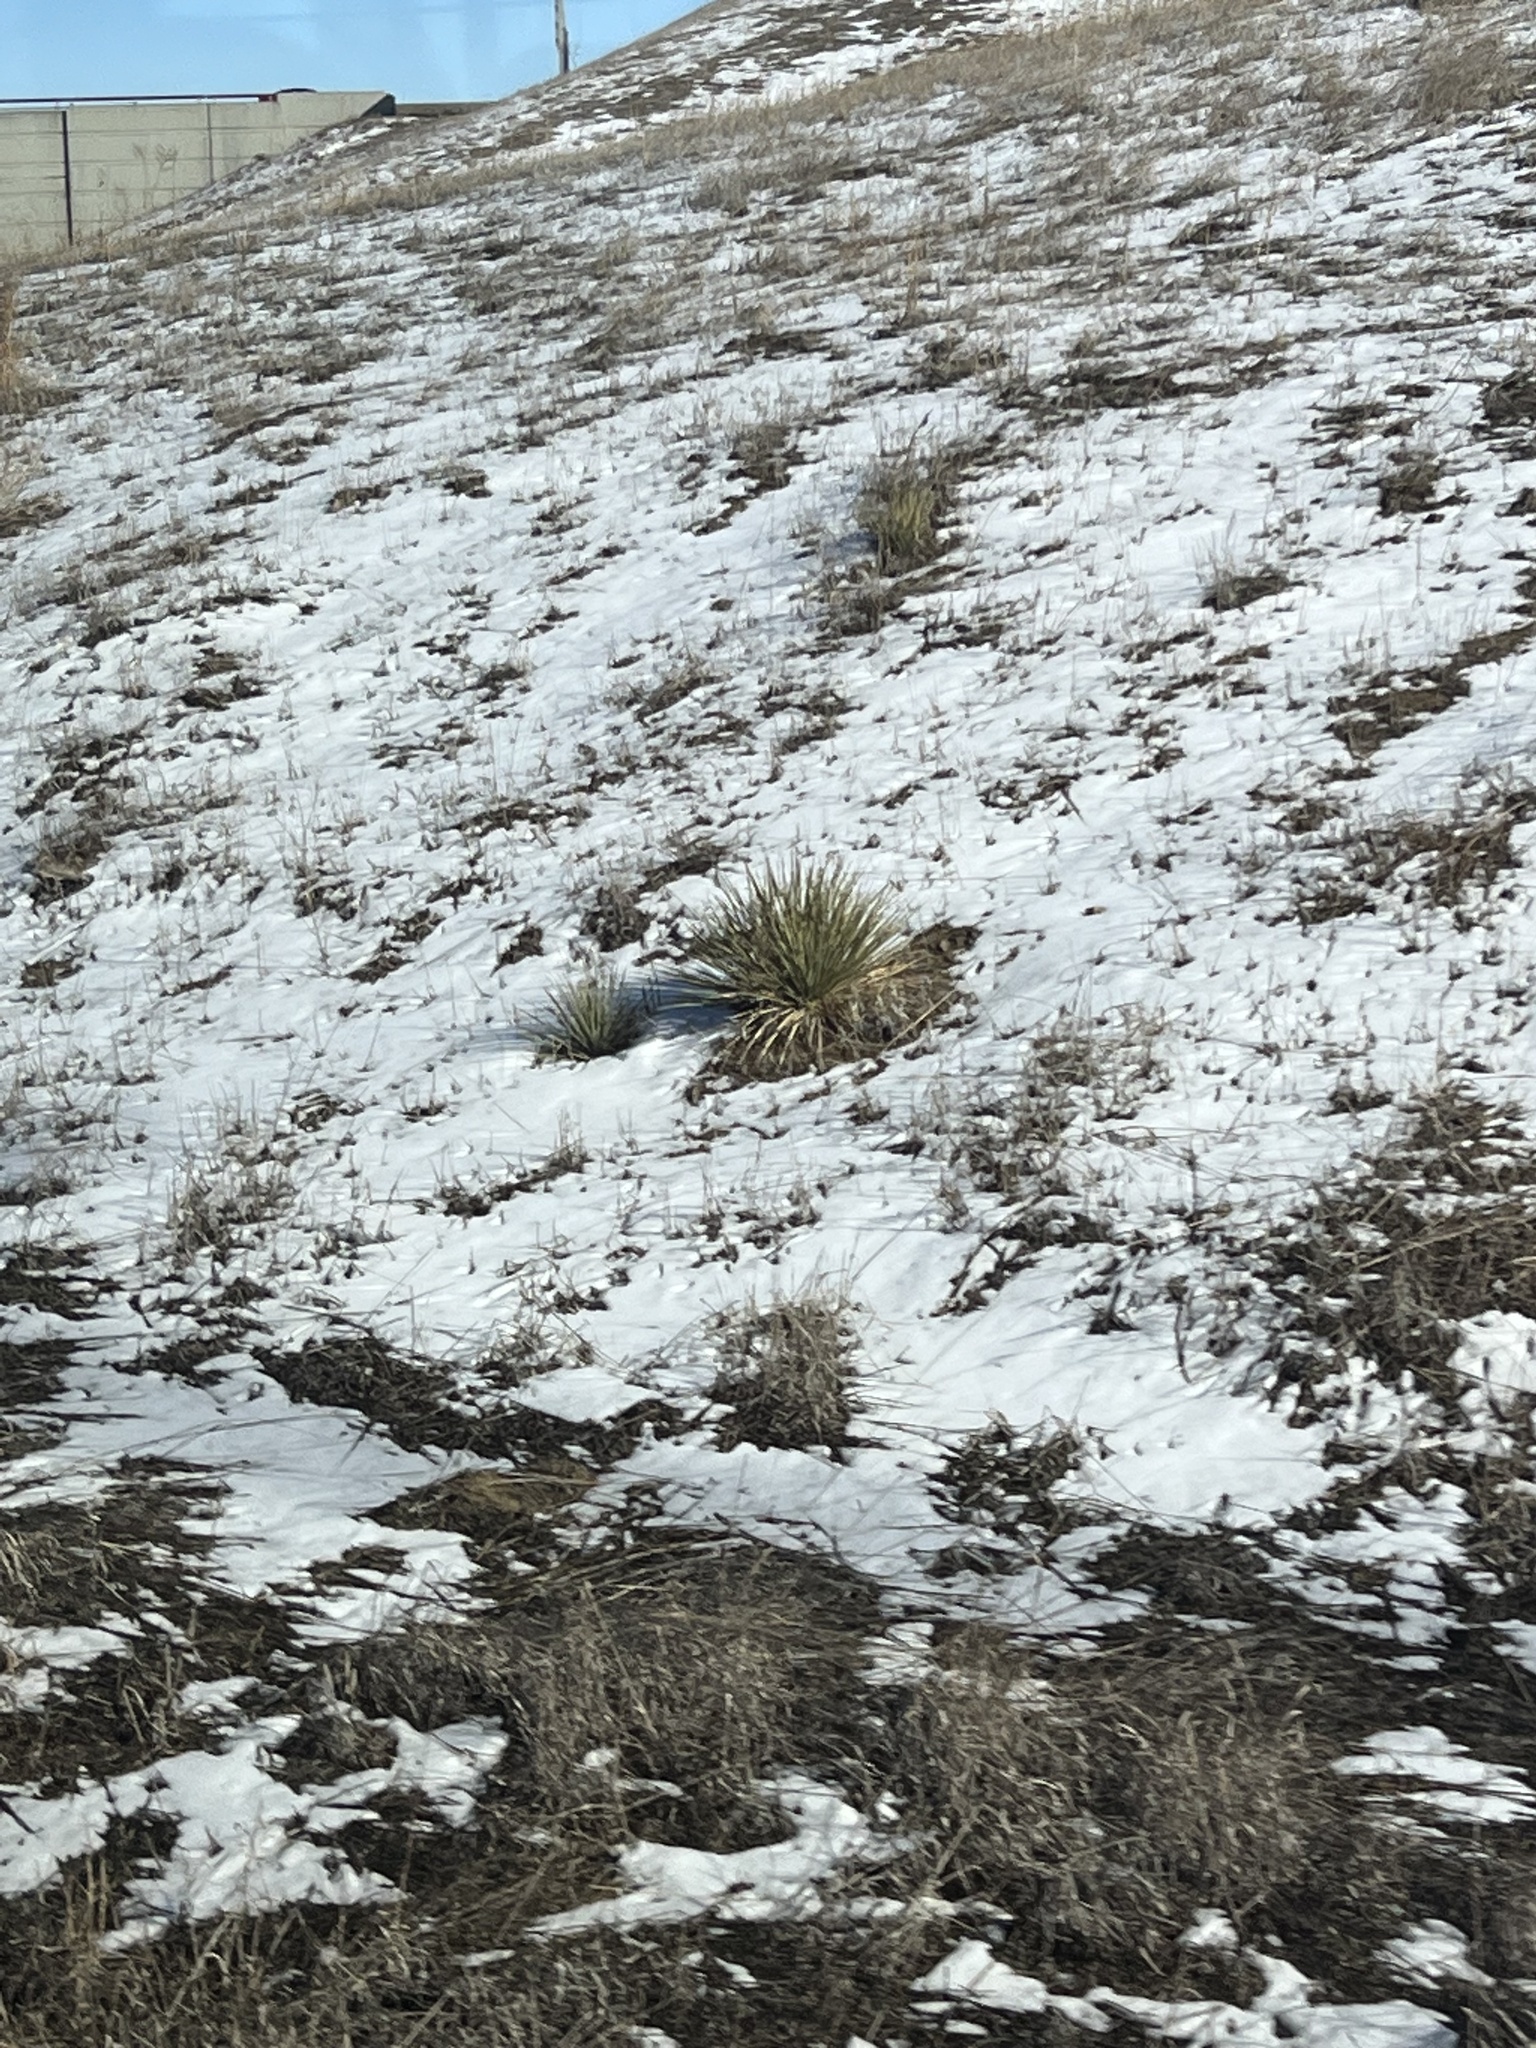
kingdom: Plantae
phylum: Tracheophyta
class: Liliopsida
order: Asparagales
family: Asparagaceae
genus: Yucca
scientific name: Yucca glauca
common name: Great plains yucca
